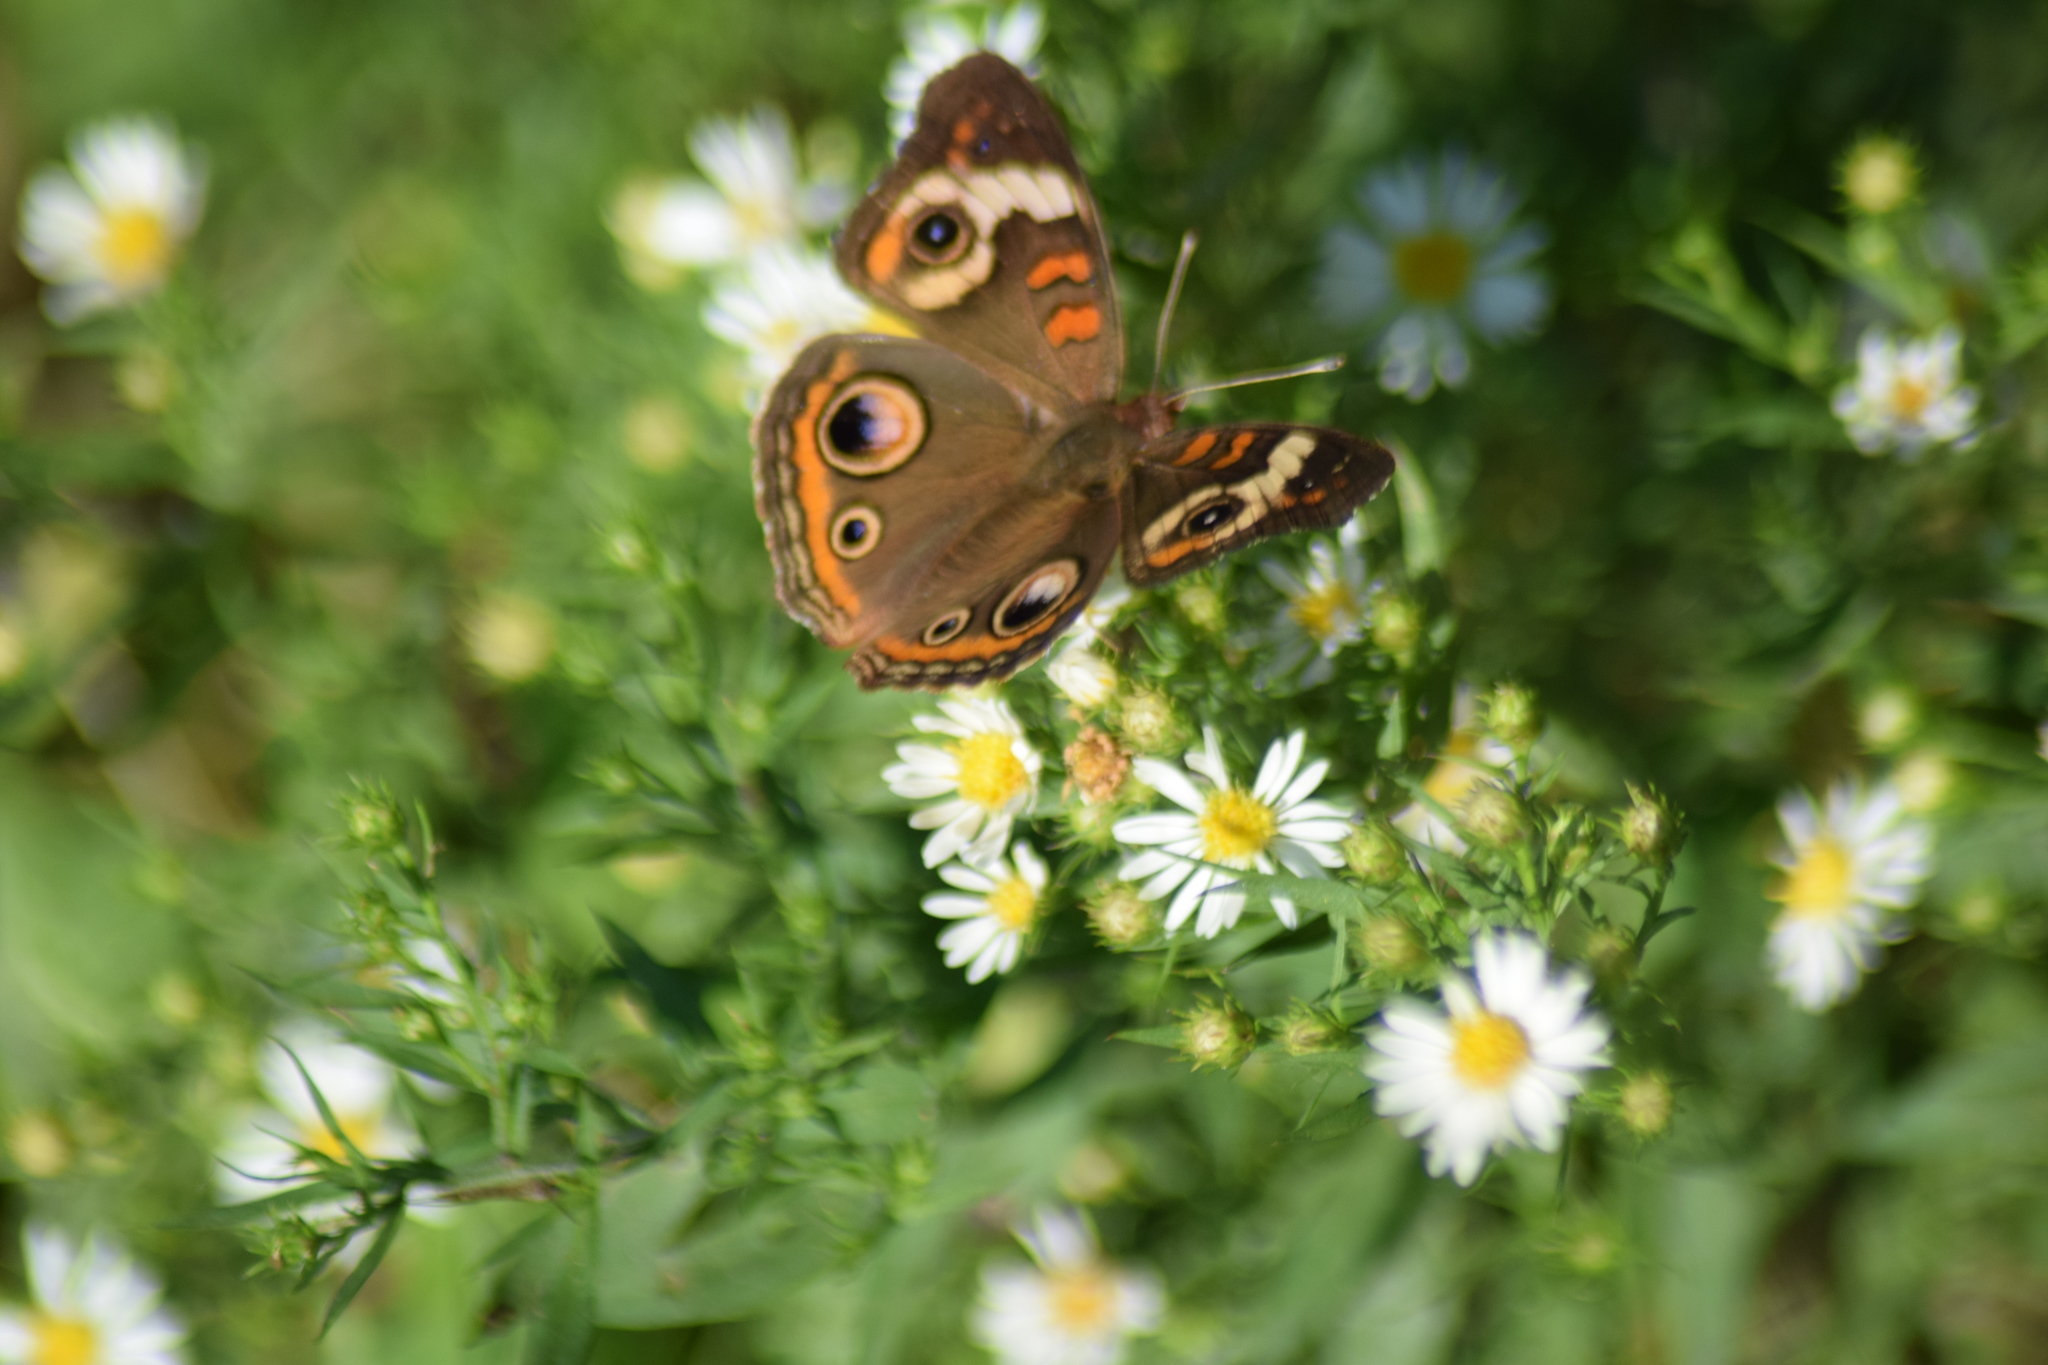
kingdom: Animalia
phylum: Arthropoda
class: Insecta
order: Lepidoptera
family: Nymphalidae
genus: Junonia
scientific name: Junonia coenia
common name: Common buckeye
